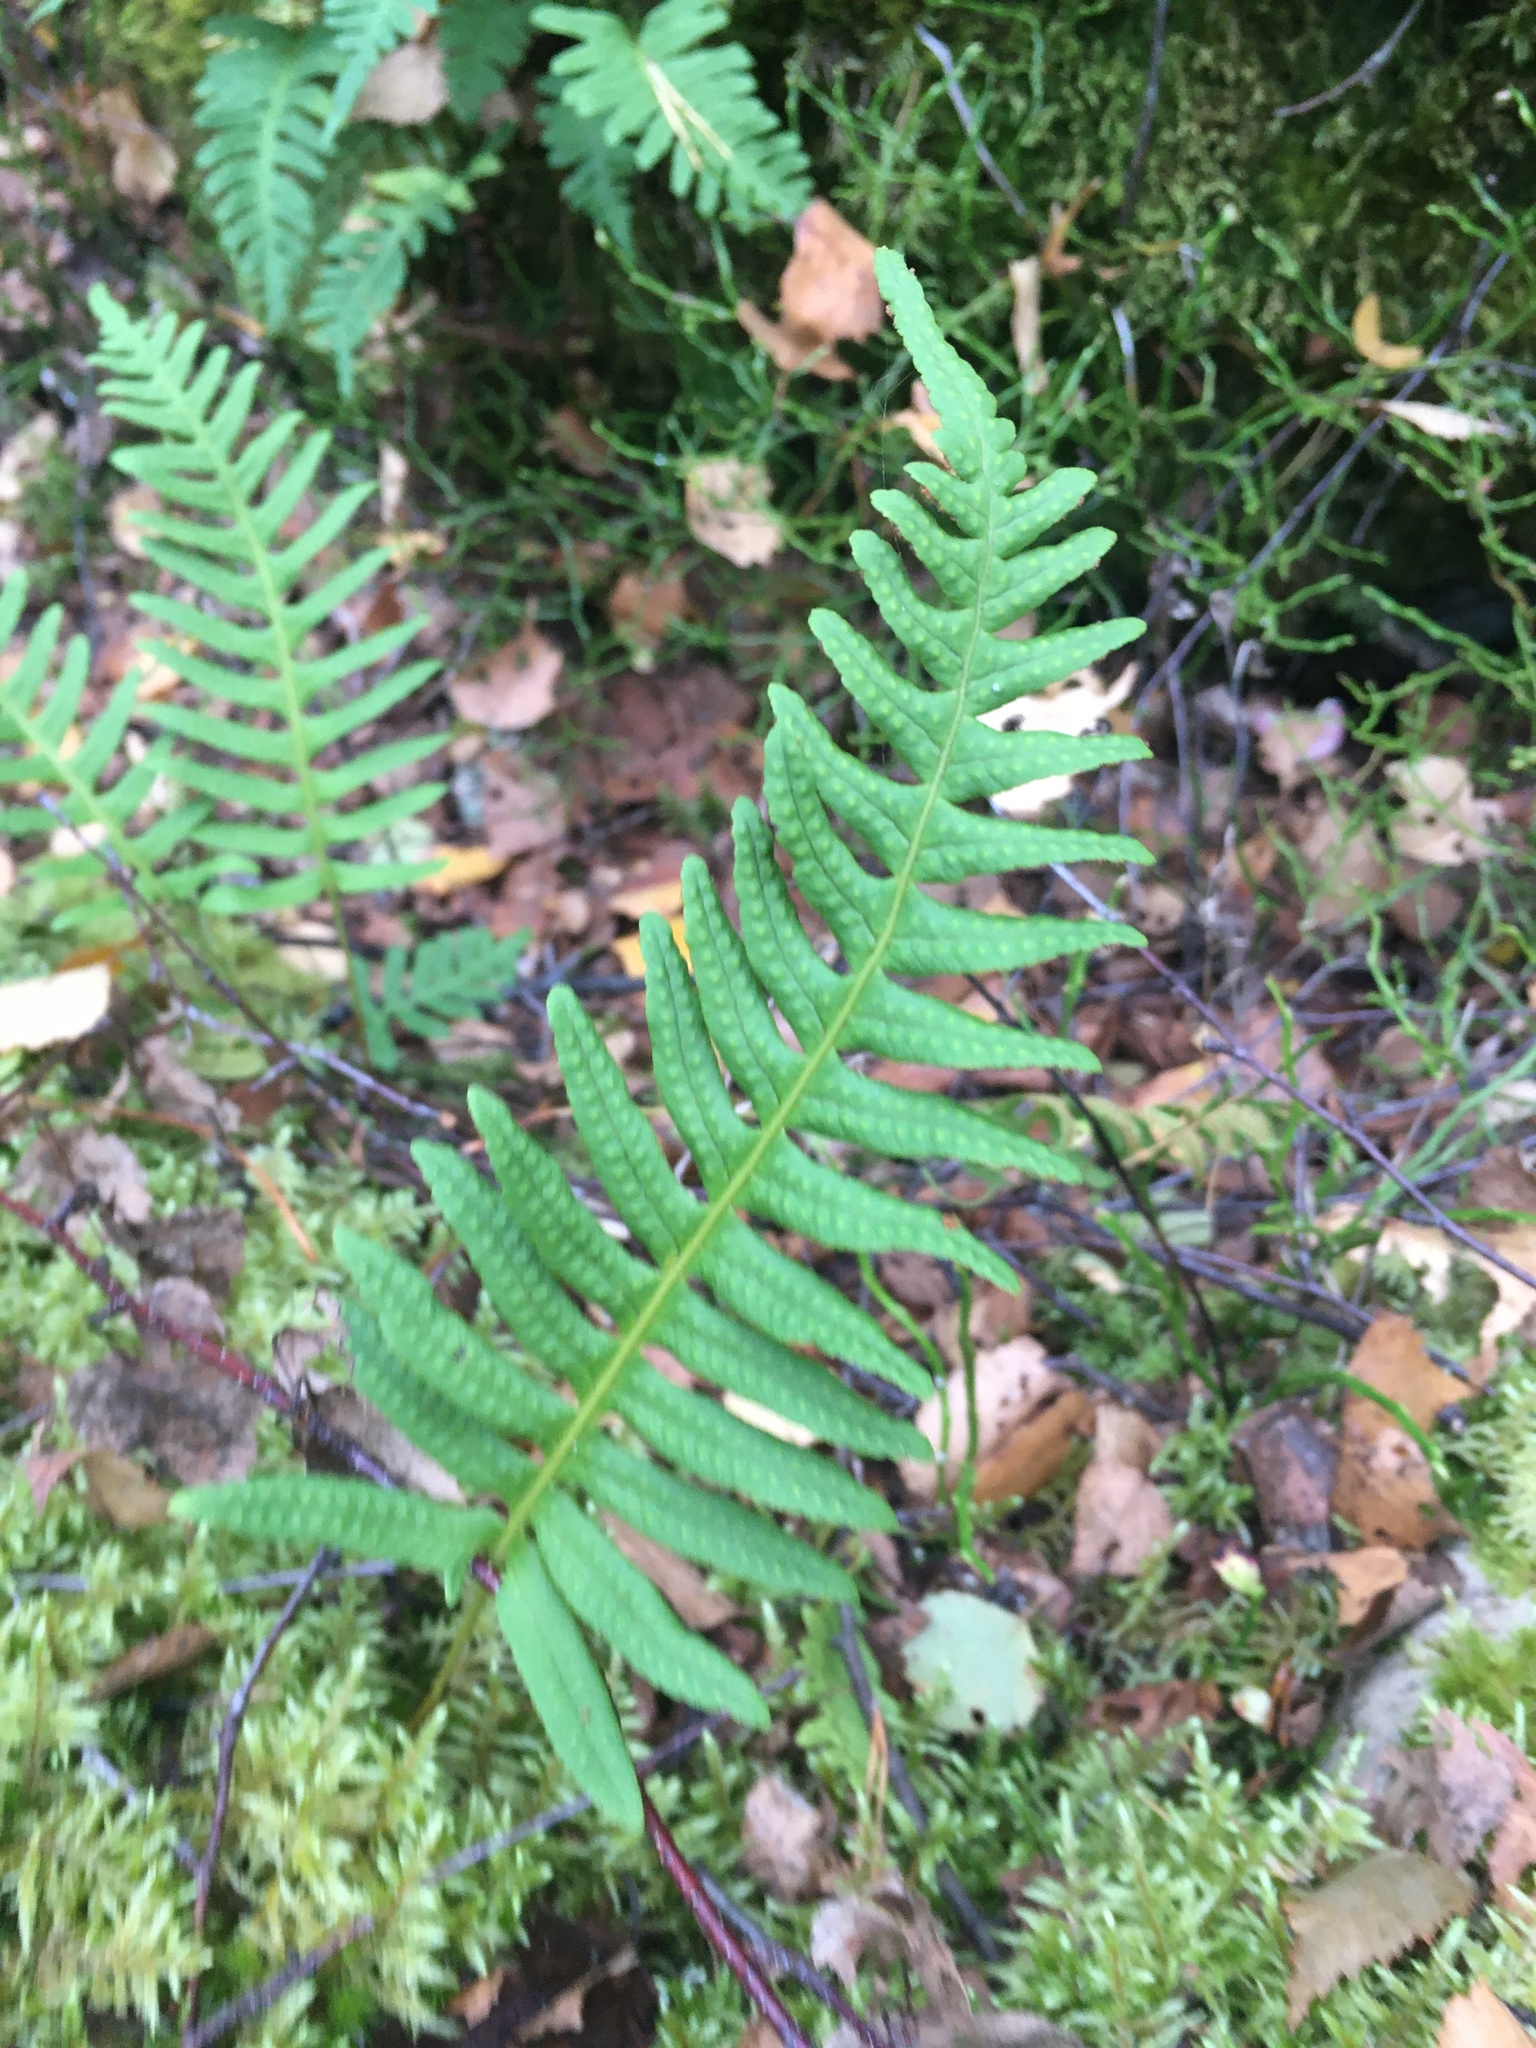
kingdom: Plantae
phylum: Tracheophyta
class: Polypodiopsida
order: Polypodiales
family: Polypodiaceae
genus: Polypodium
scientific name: Polypodium vulgare
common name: Common polypody
